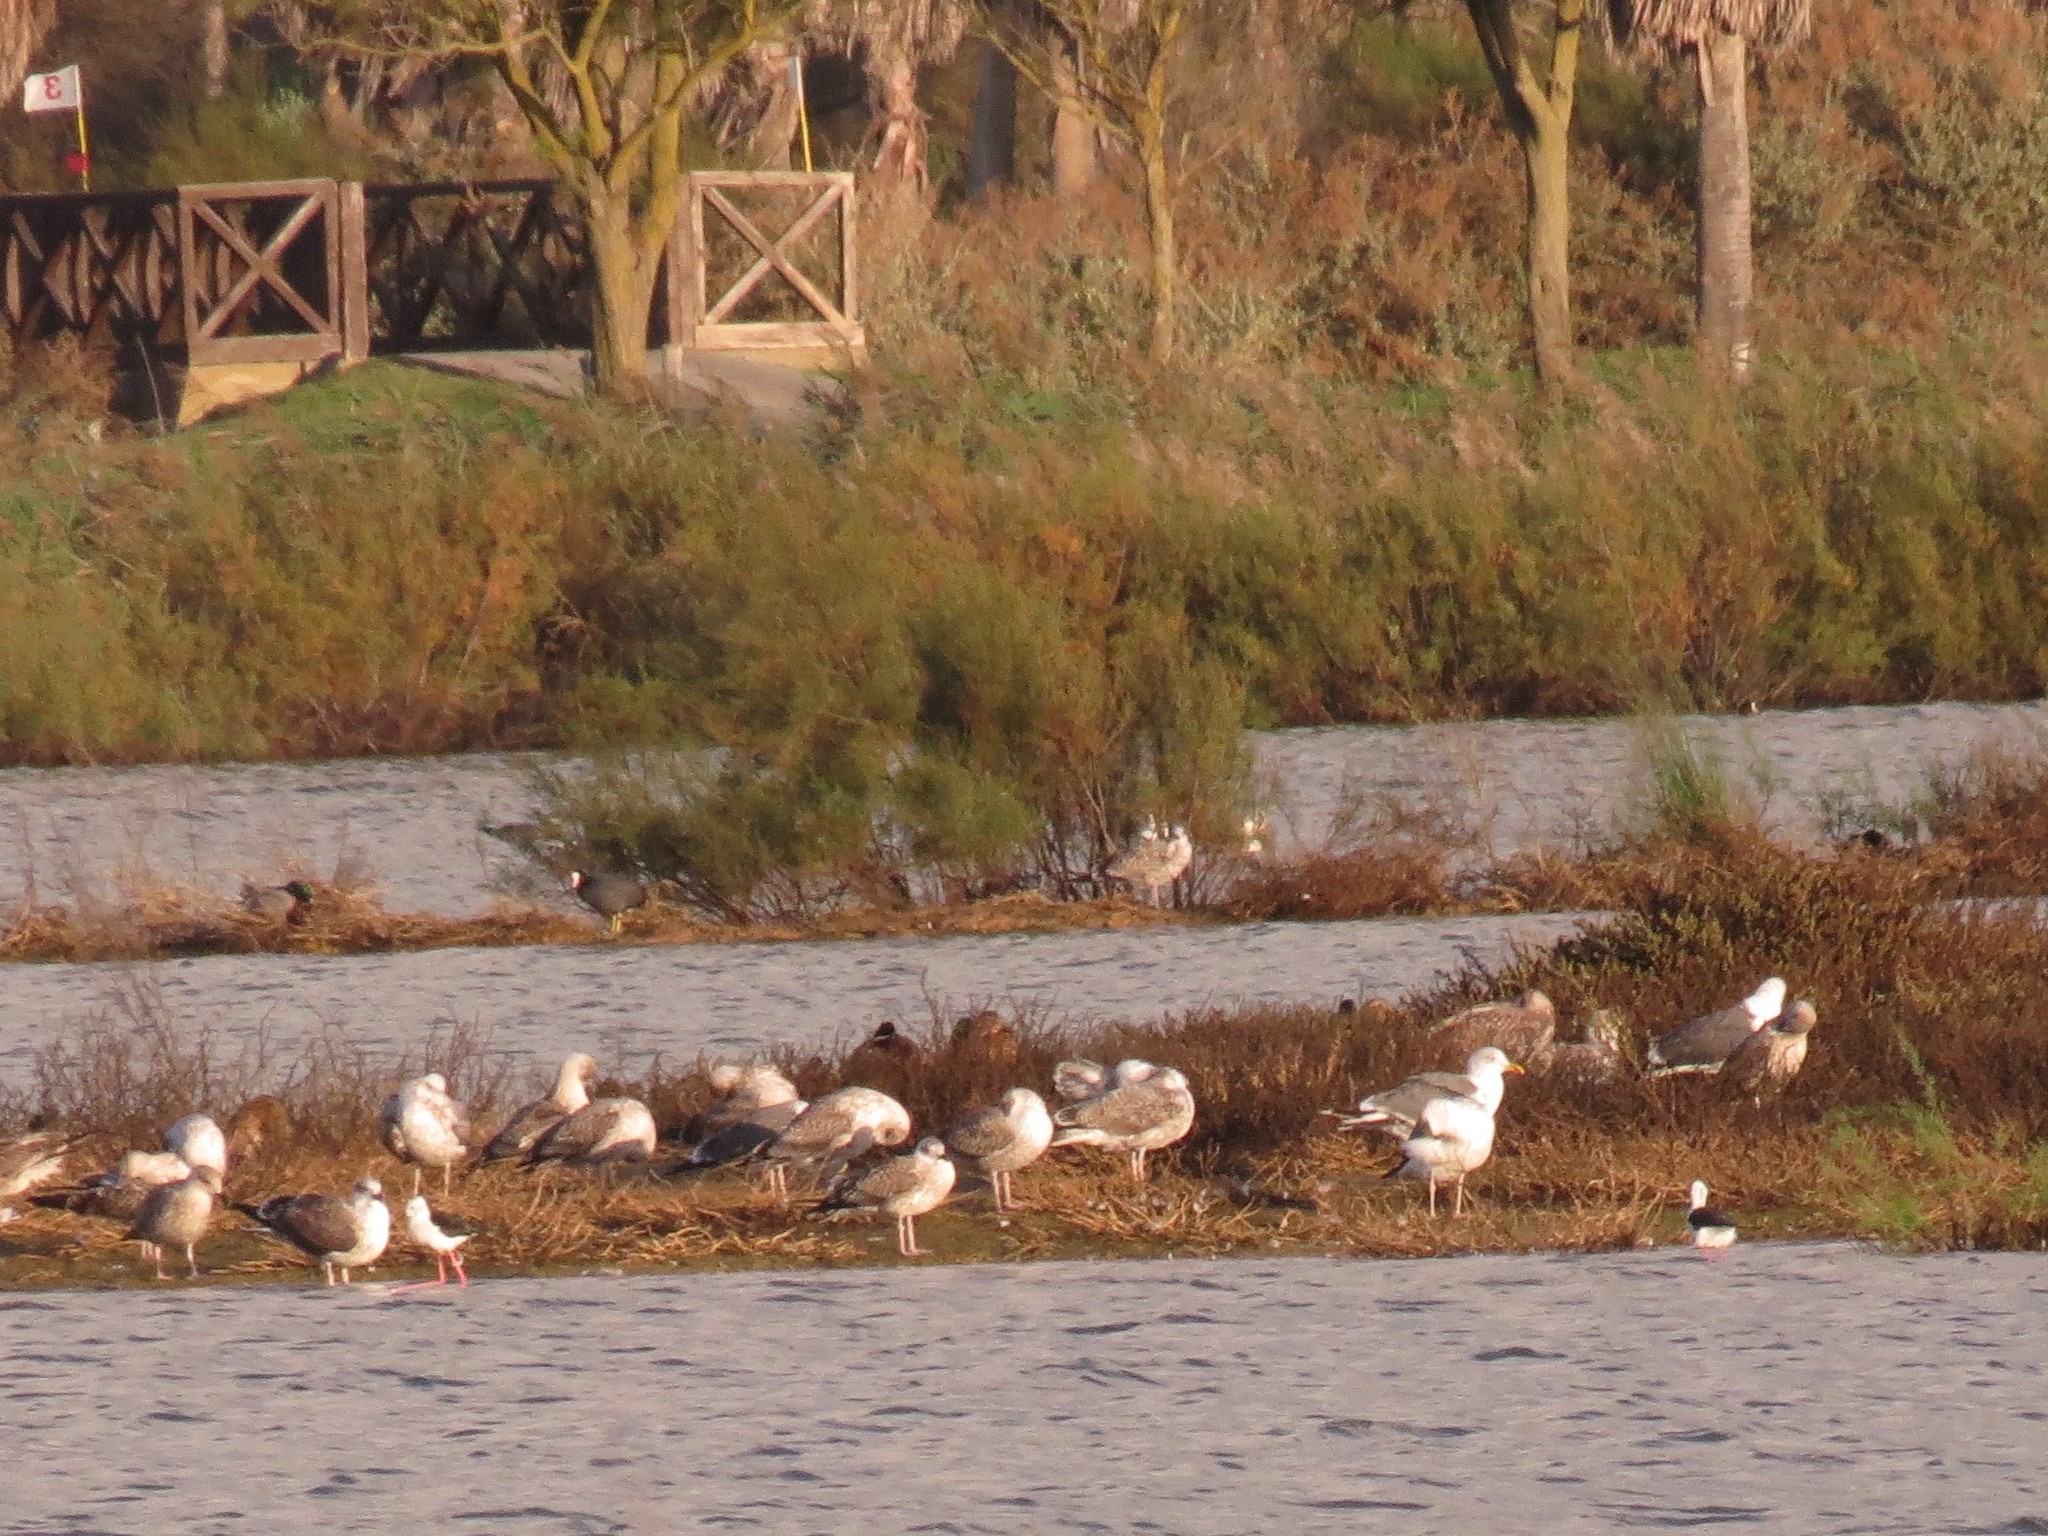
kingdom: Animalia
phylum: Chordata
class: Aves
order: Gruiformes
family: Rallidae
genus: Fulica
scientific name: Fulica atra
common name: Eurasian coot
